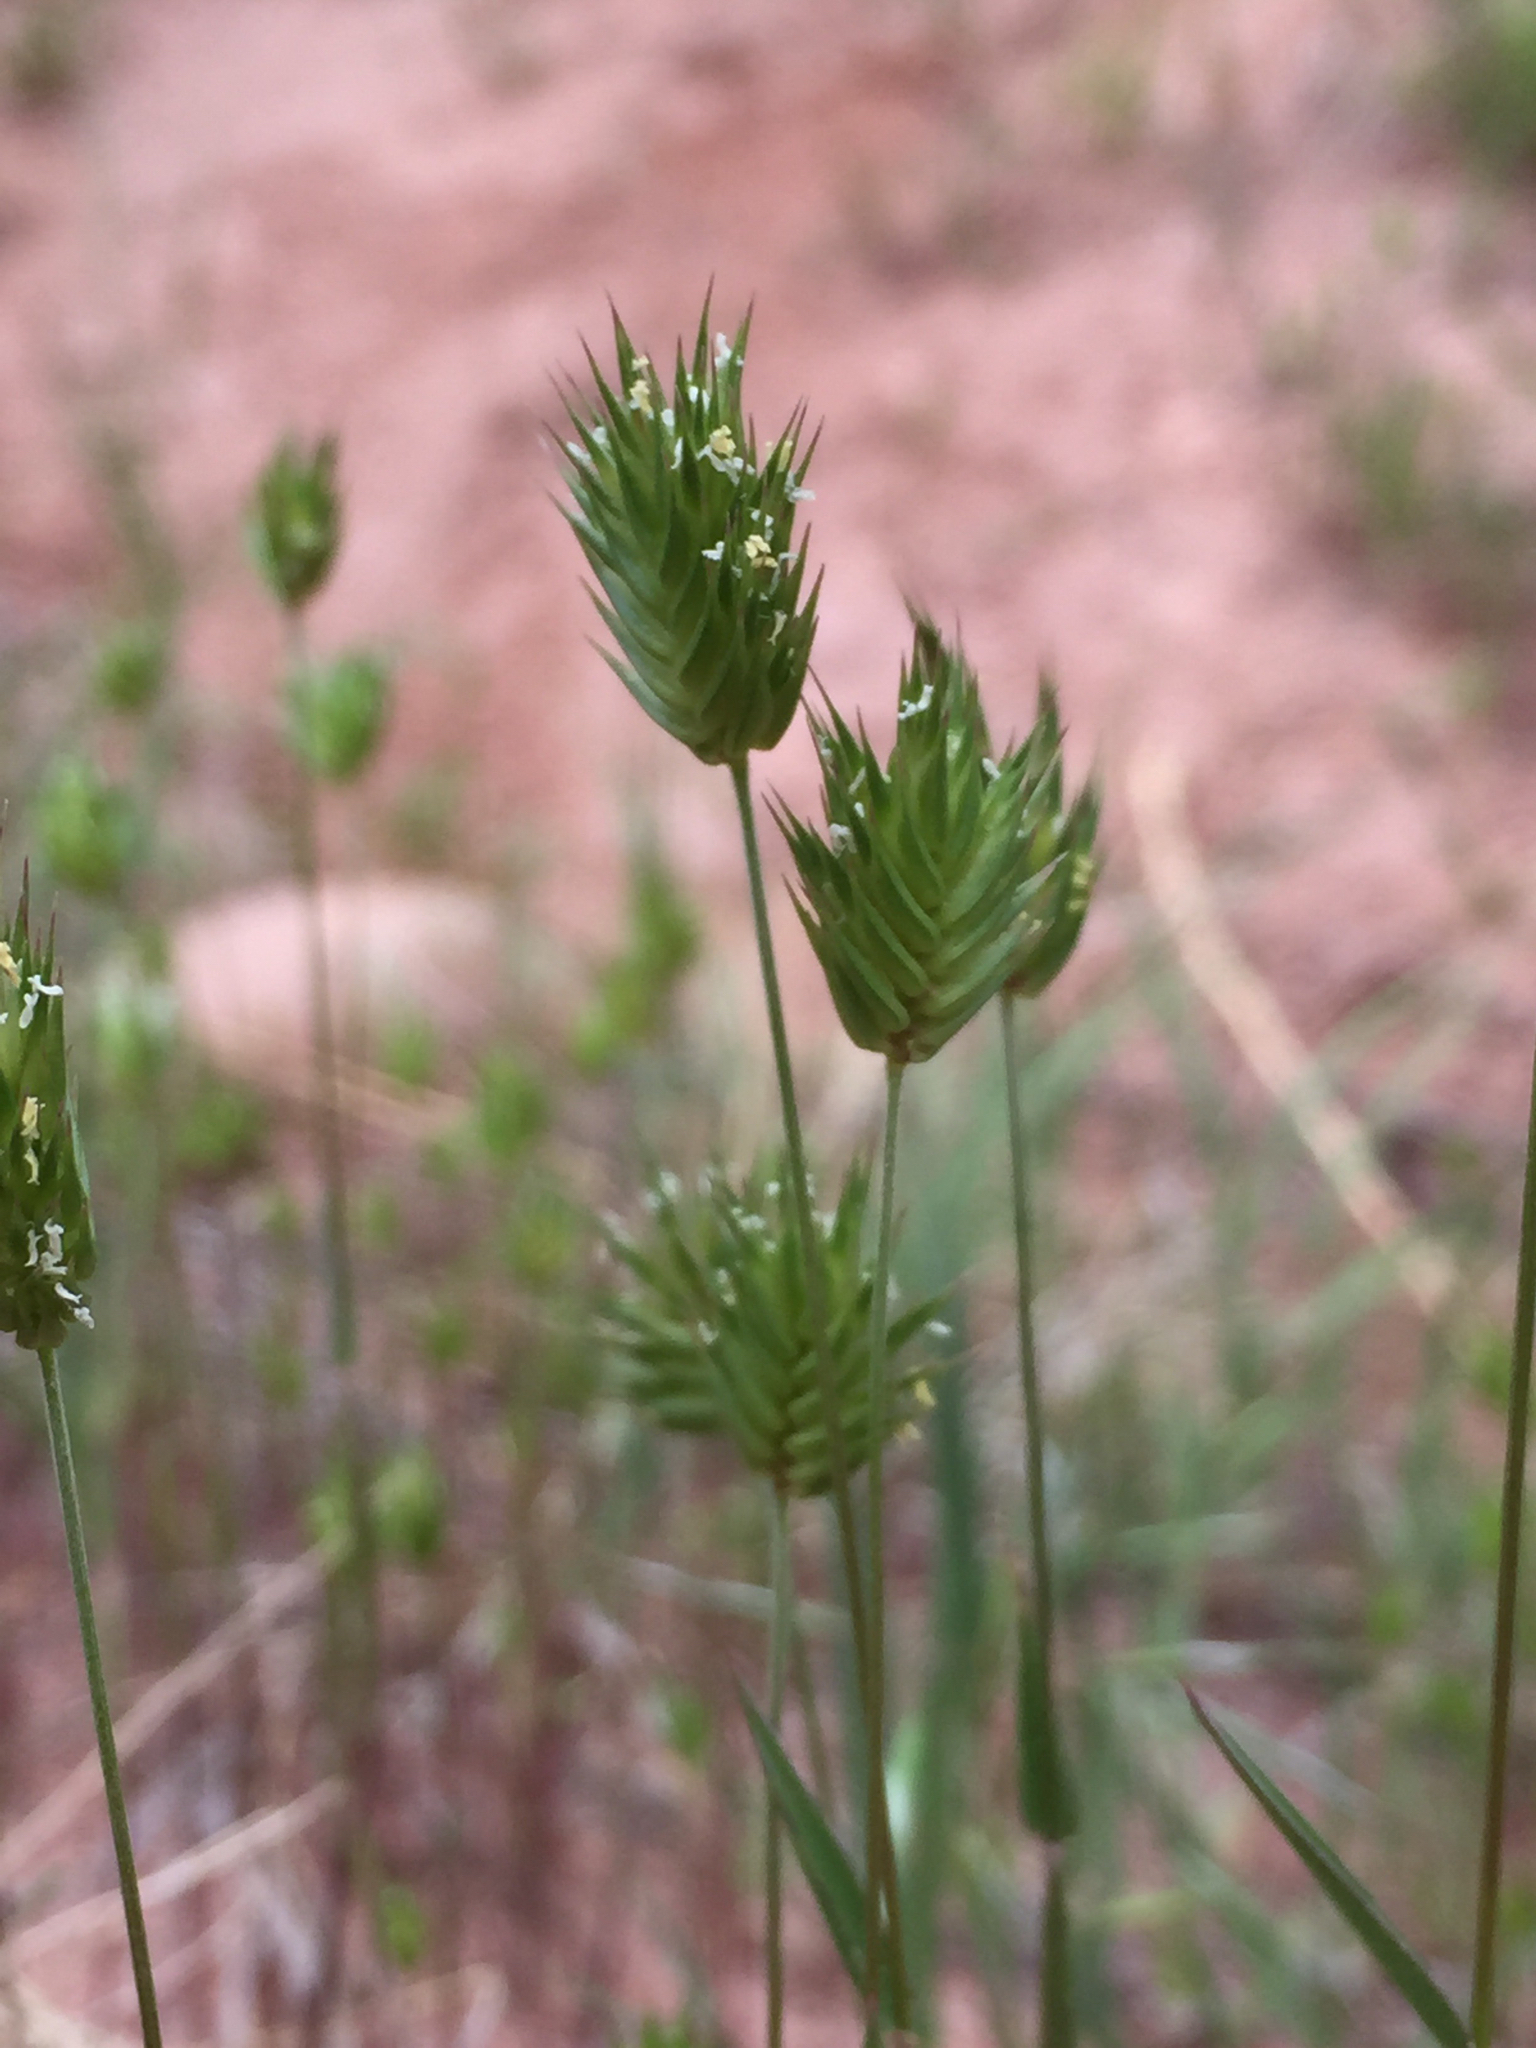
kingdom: Plantae
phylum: Tracheophyta
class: Liliopsida
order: Poales
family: Poaceae
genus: Eremopyrum
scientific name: Eremopyrum triticeum
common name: Annual wheatgrass
